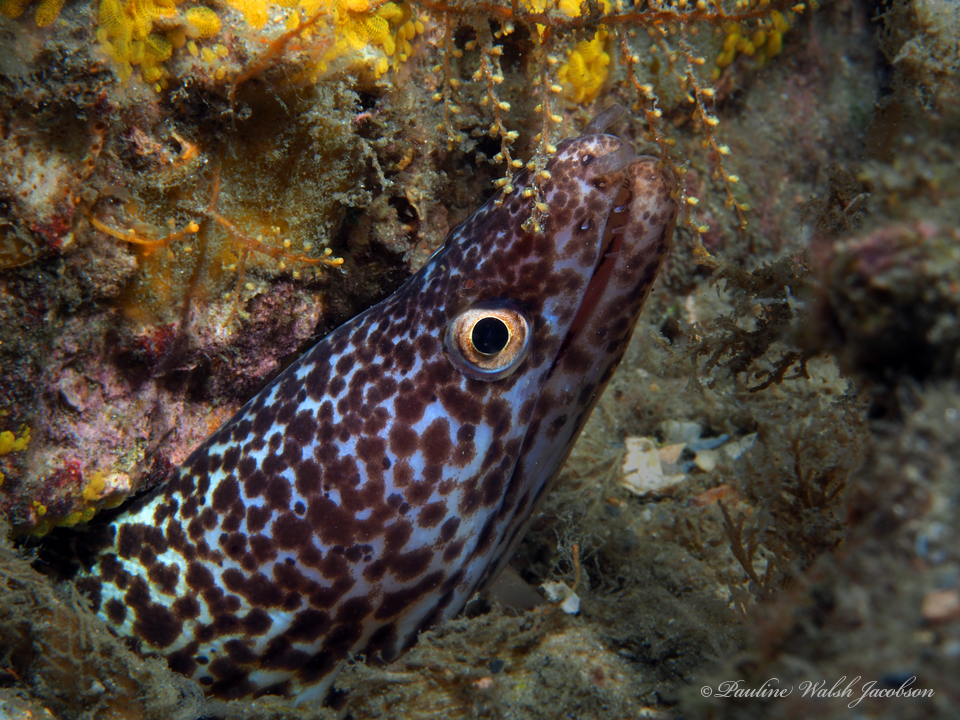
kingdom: Animalia
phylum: Chordata
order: Anguilliformes
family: Muraenidae
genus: Gymnothorax
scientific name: Gymnothorax moringa
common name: Spotted moray
